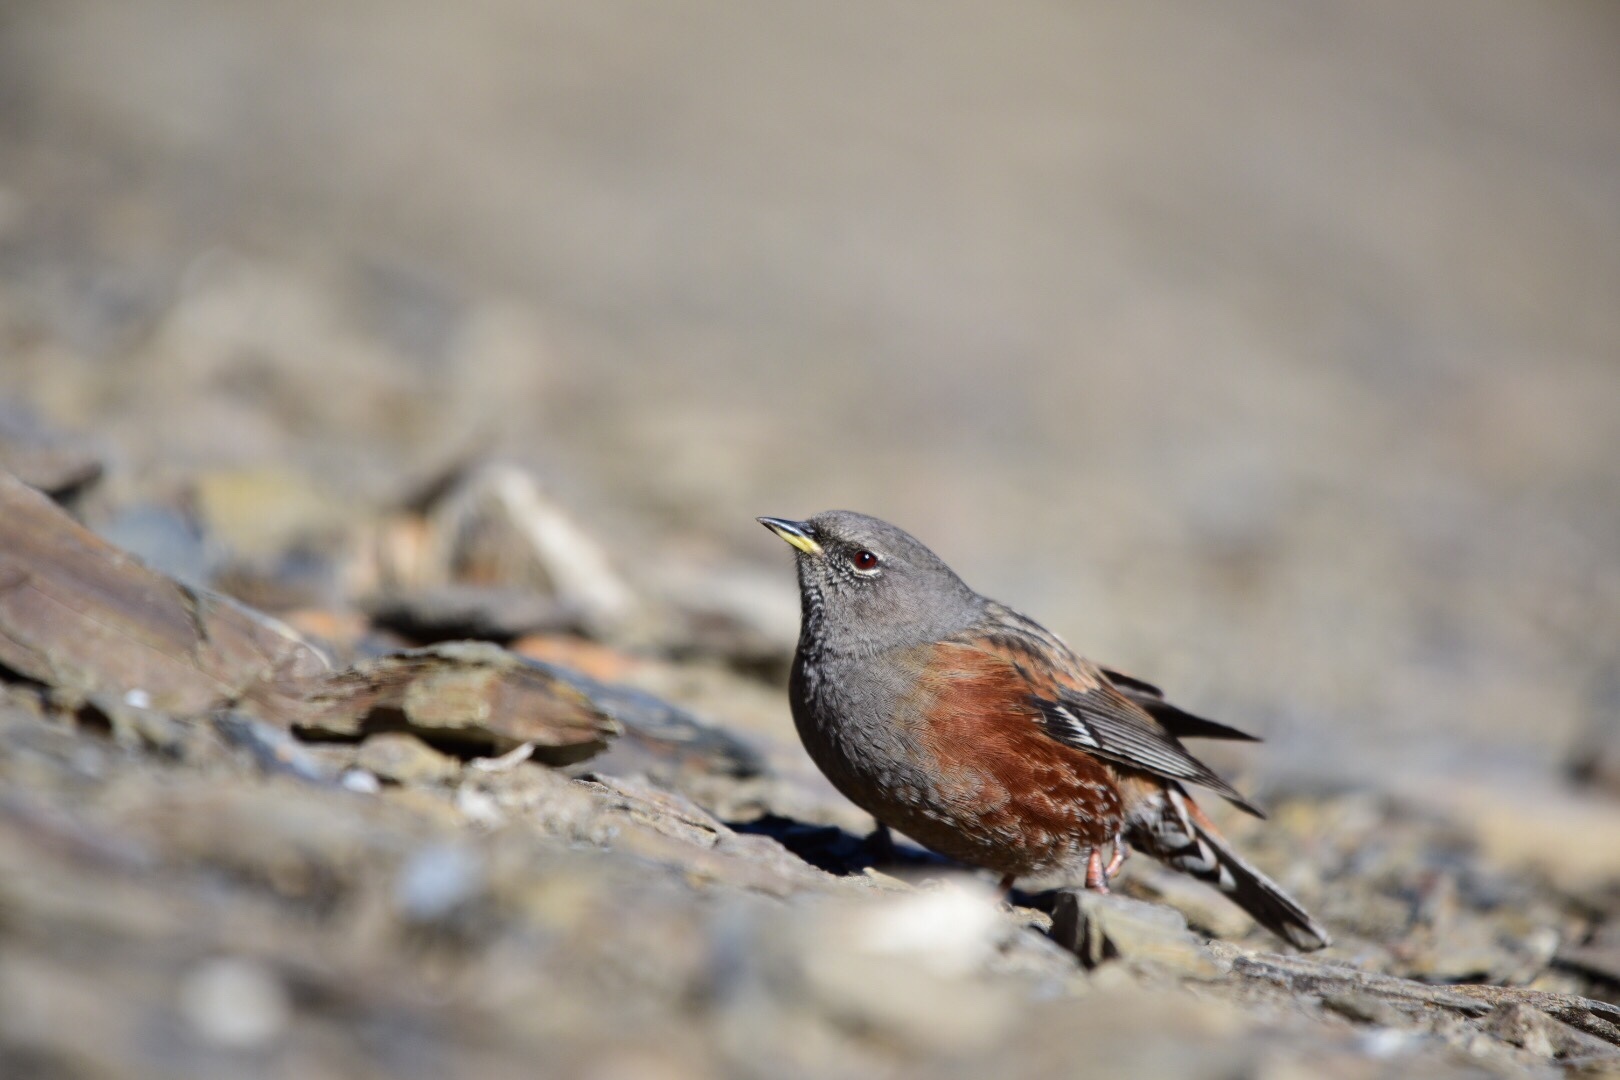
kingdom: Animalia
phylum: Chordata
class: Aves
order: Passeriformes
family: Prunellidae
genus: Prunella
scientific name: Prunella collaris
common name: Alpine accentor
